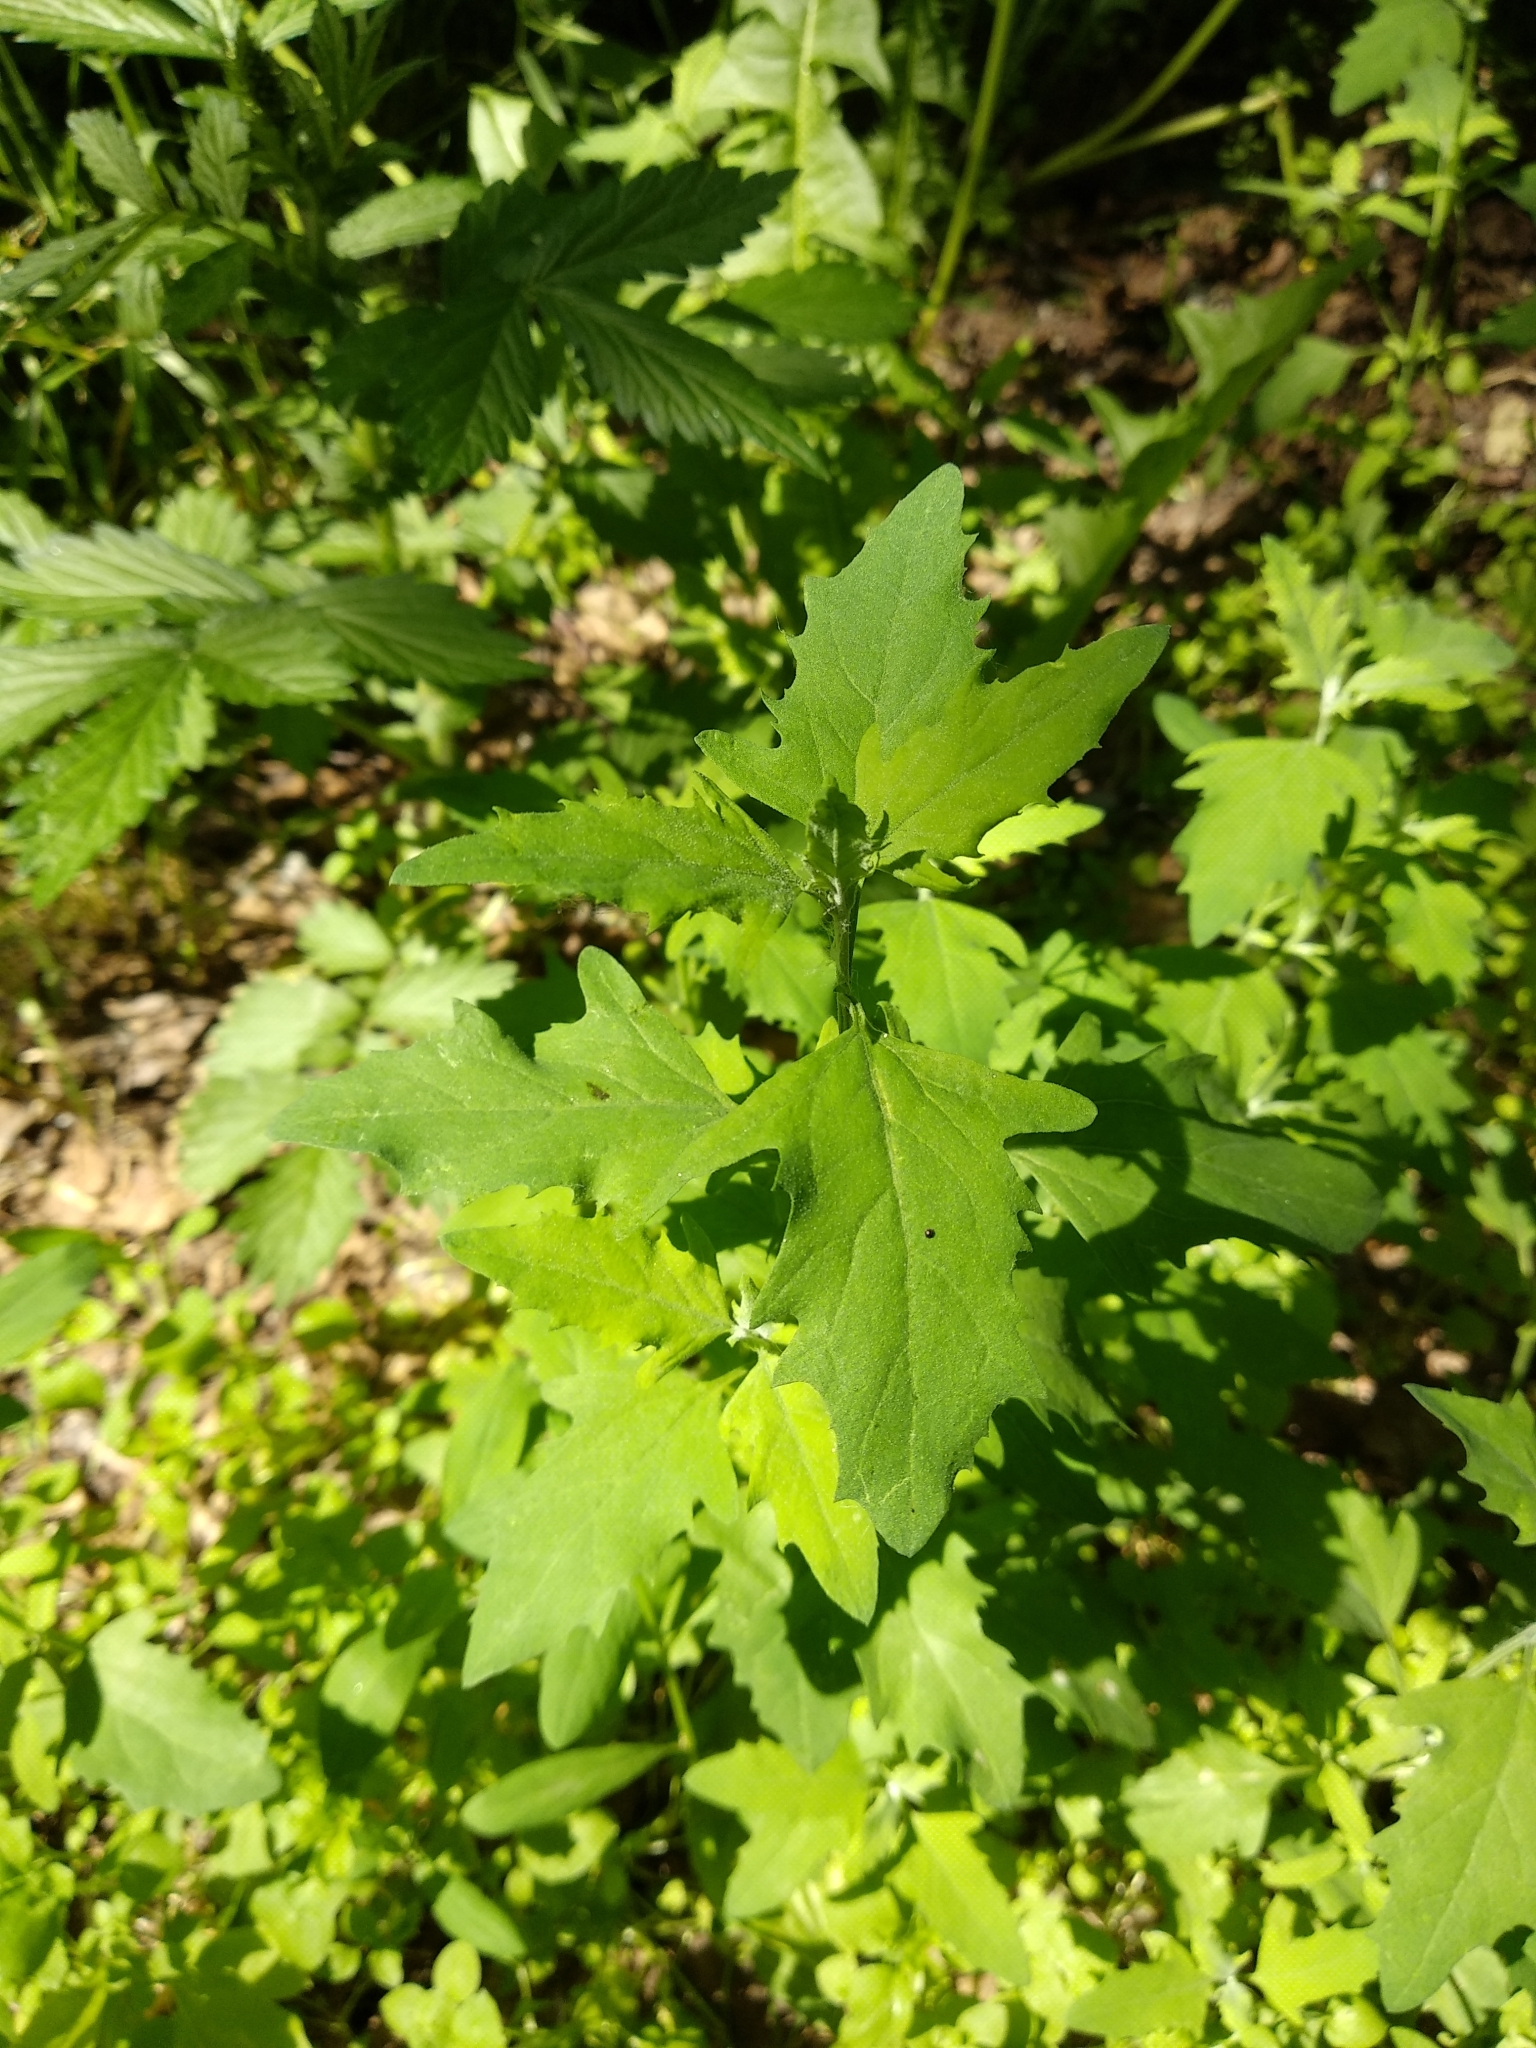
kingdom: Plantae
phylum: Tracheophyta
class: Magnoliopsida
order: Caryophyllales
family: Amaranthaceae
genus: Atriplex
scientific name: Atriplex patula
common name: Common orache
